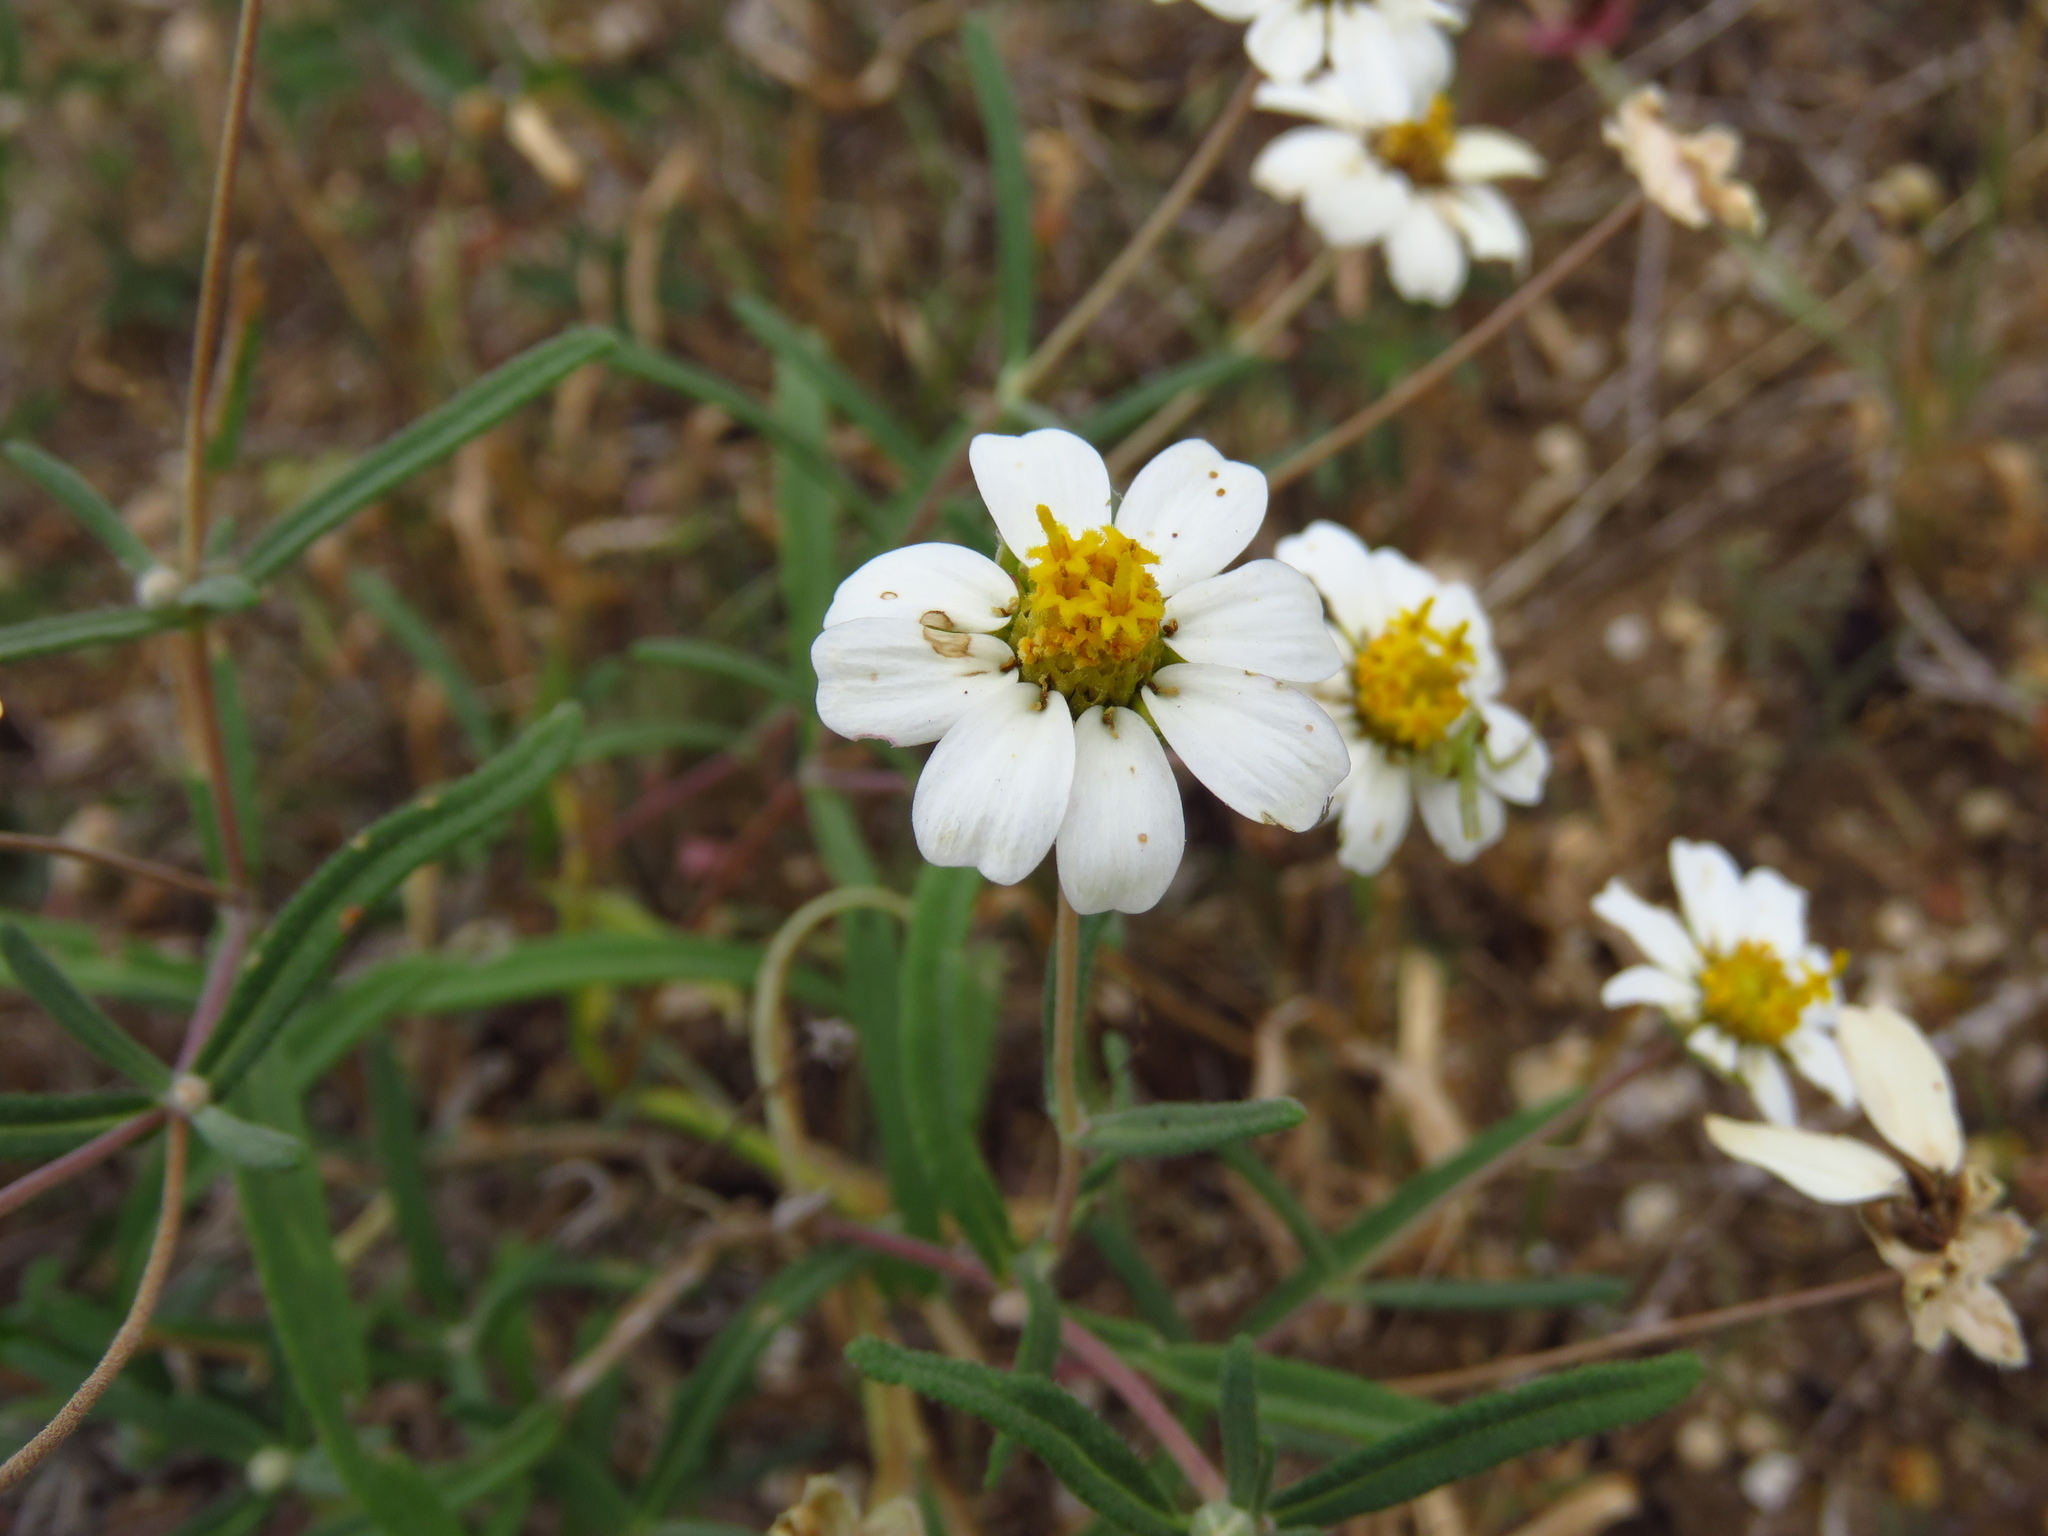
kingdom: Plantae
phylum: Tracheophyta
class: Magnoliopsida
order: Asterales
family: Asteraceae
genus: Melampodium
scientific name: Melampodium leucanthum
